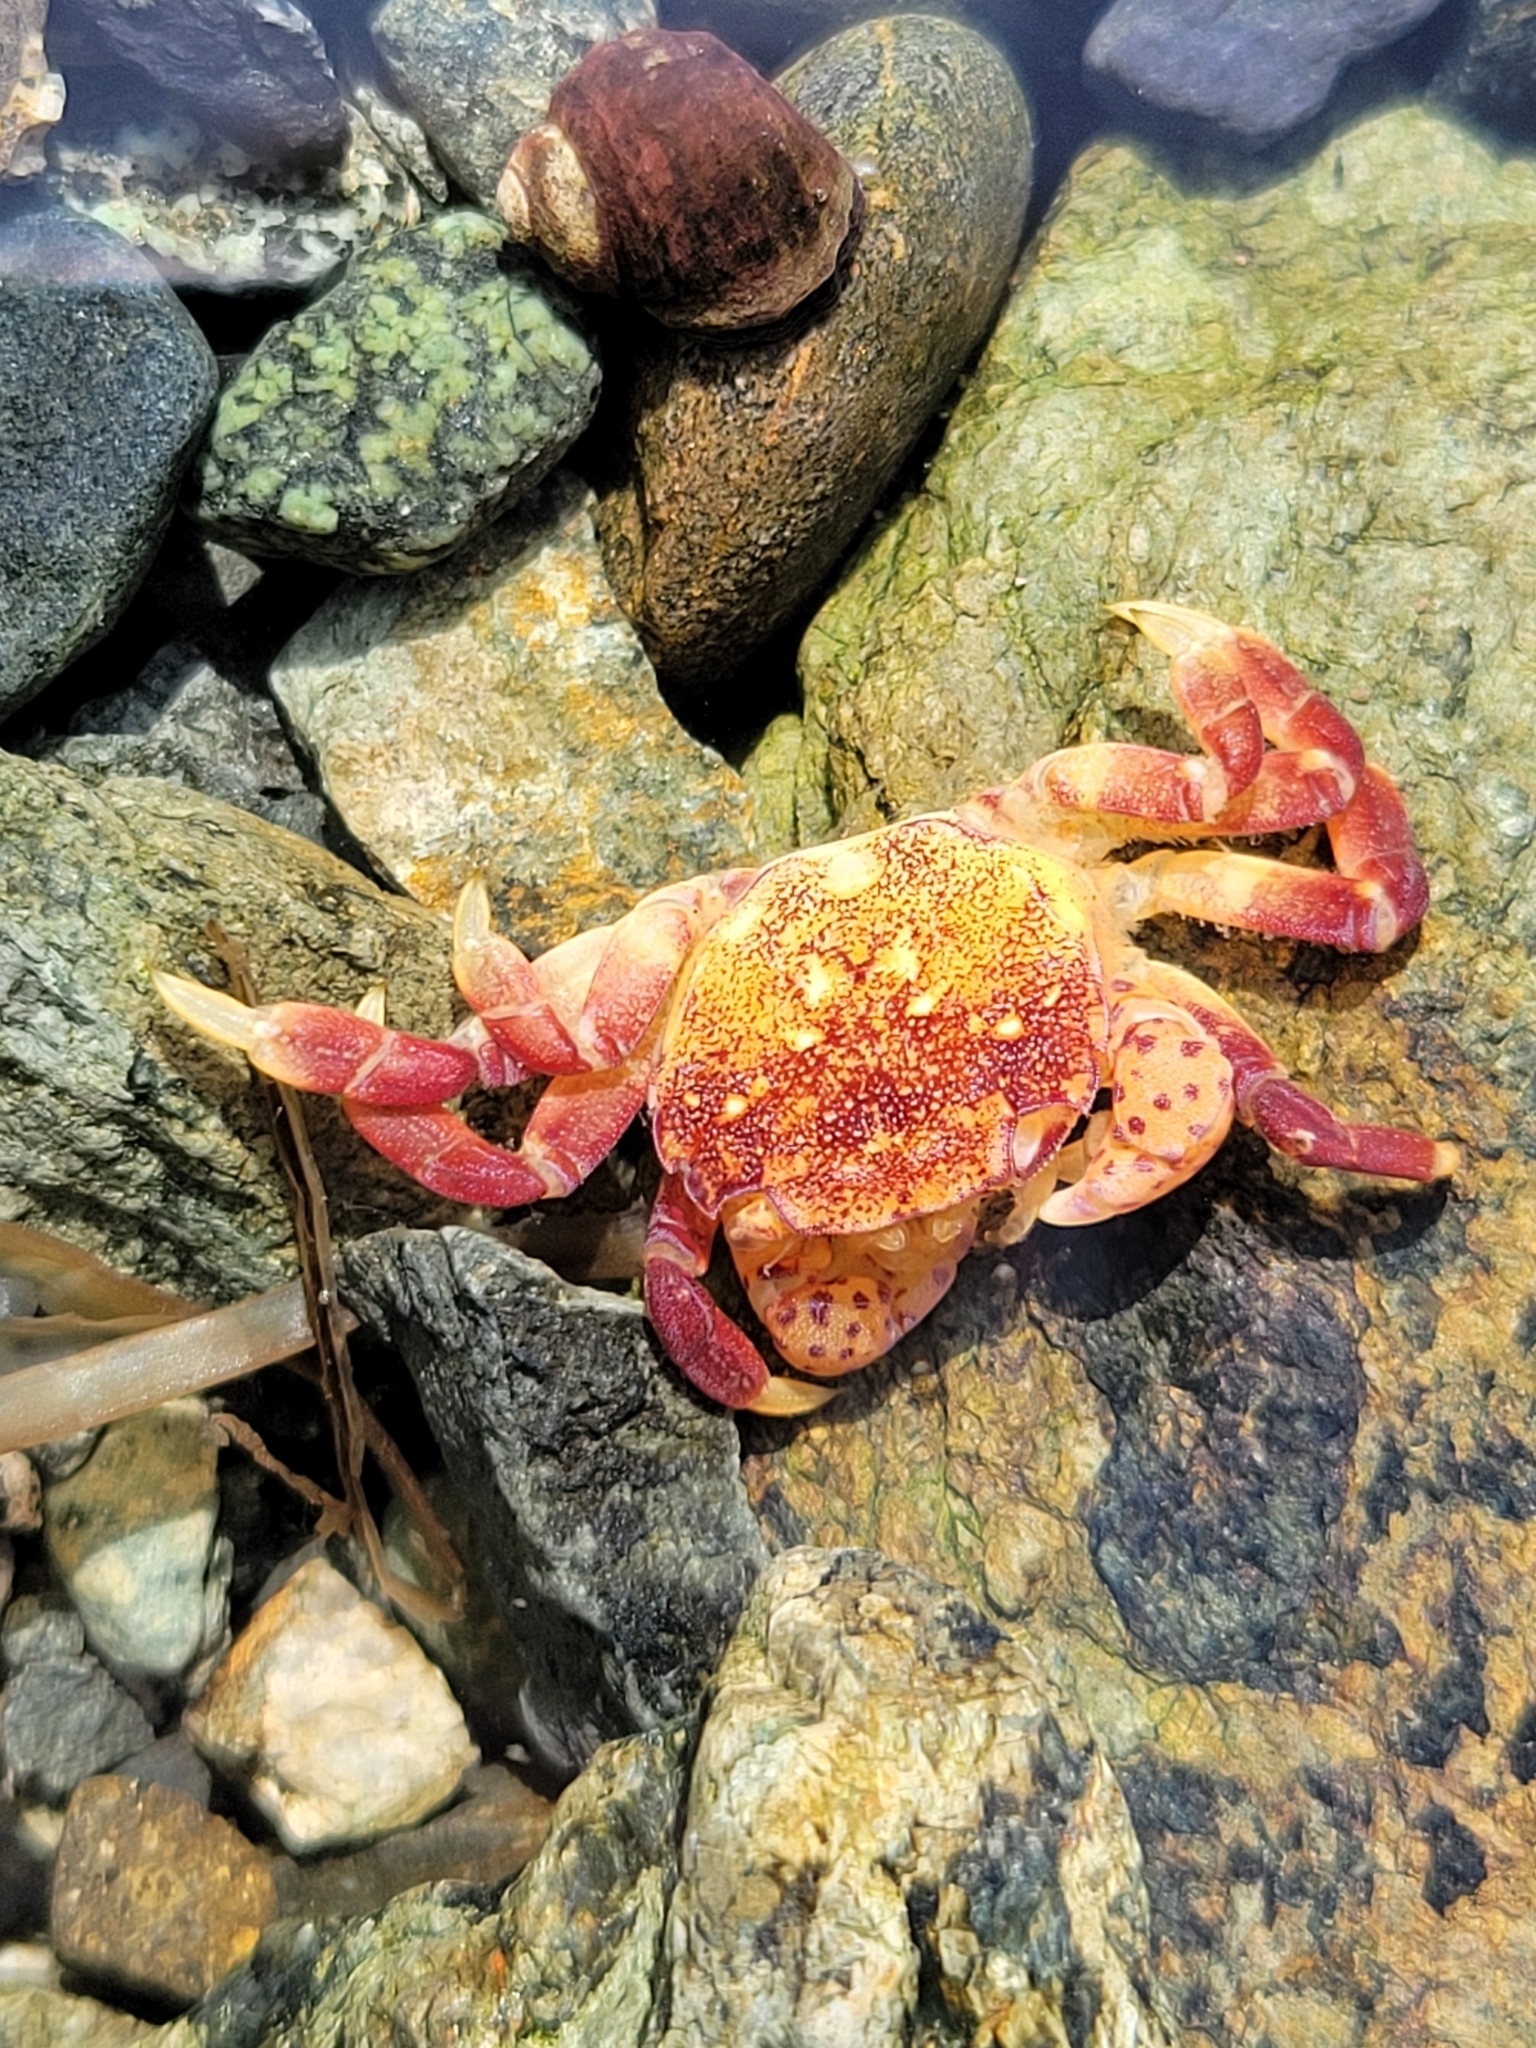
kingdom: Animalia
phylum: Arthropoda
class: Malacostraca
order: Decapoda
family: Varunidae
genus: Hemigrapsus
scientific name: Hemigrapsus nudus
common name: Purple shore crab
